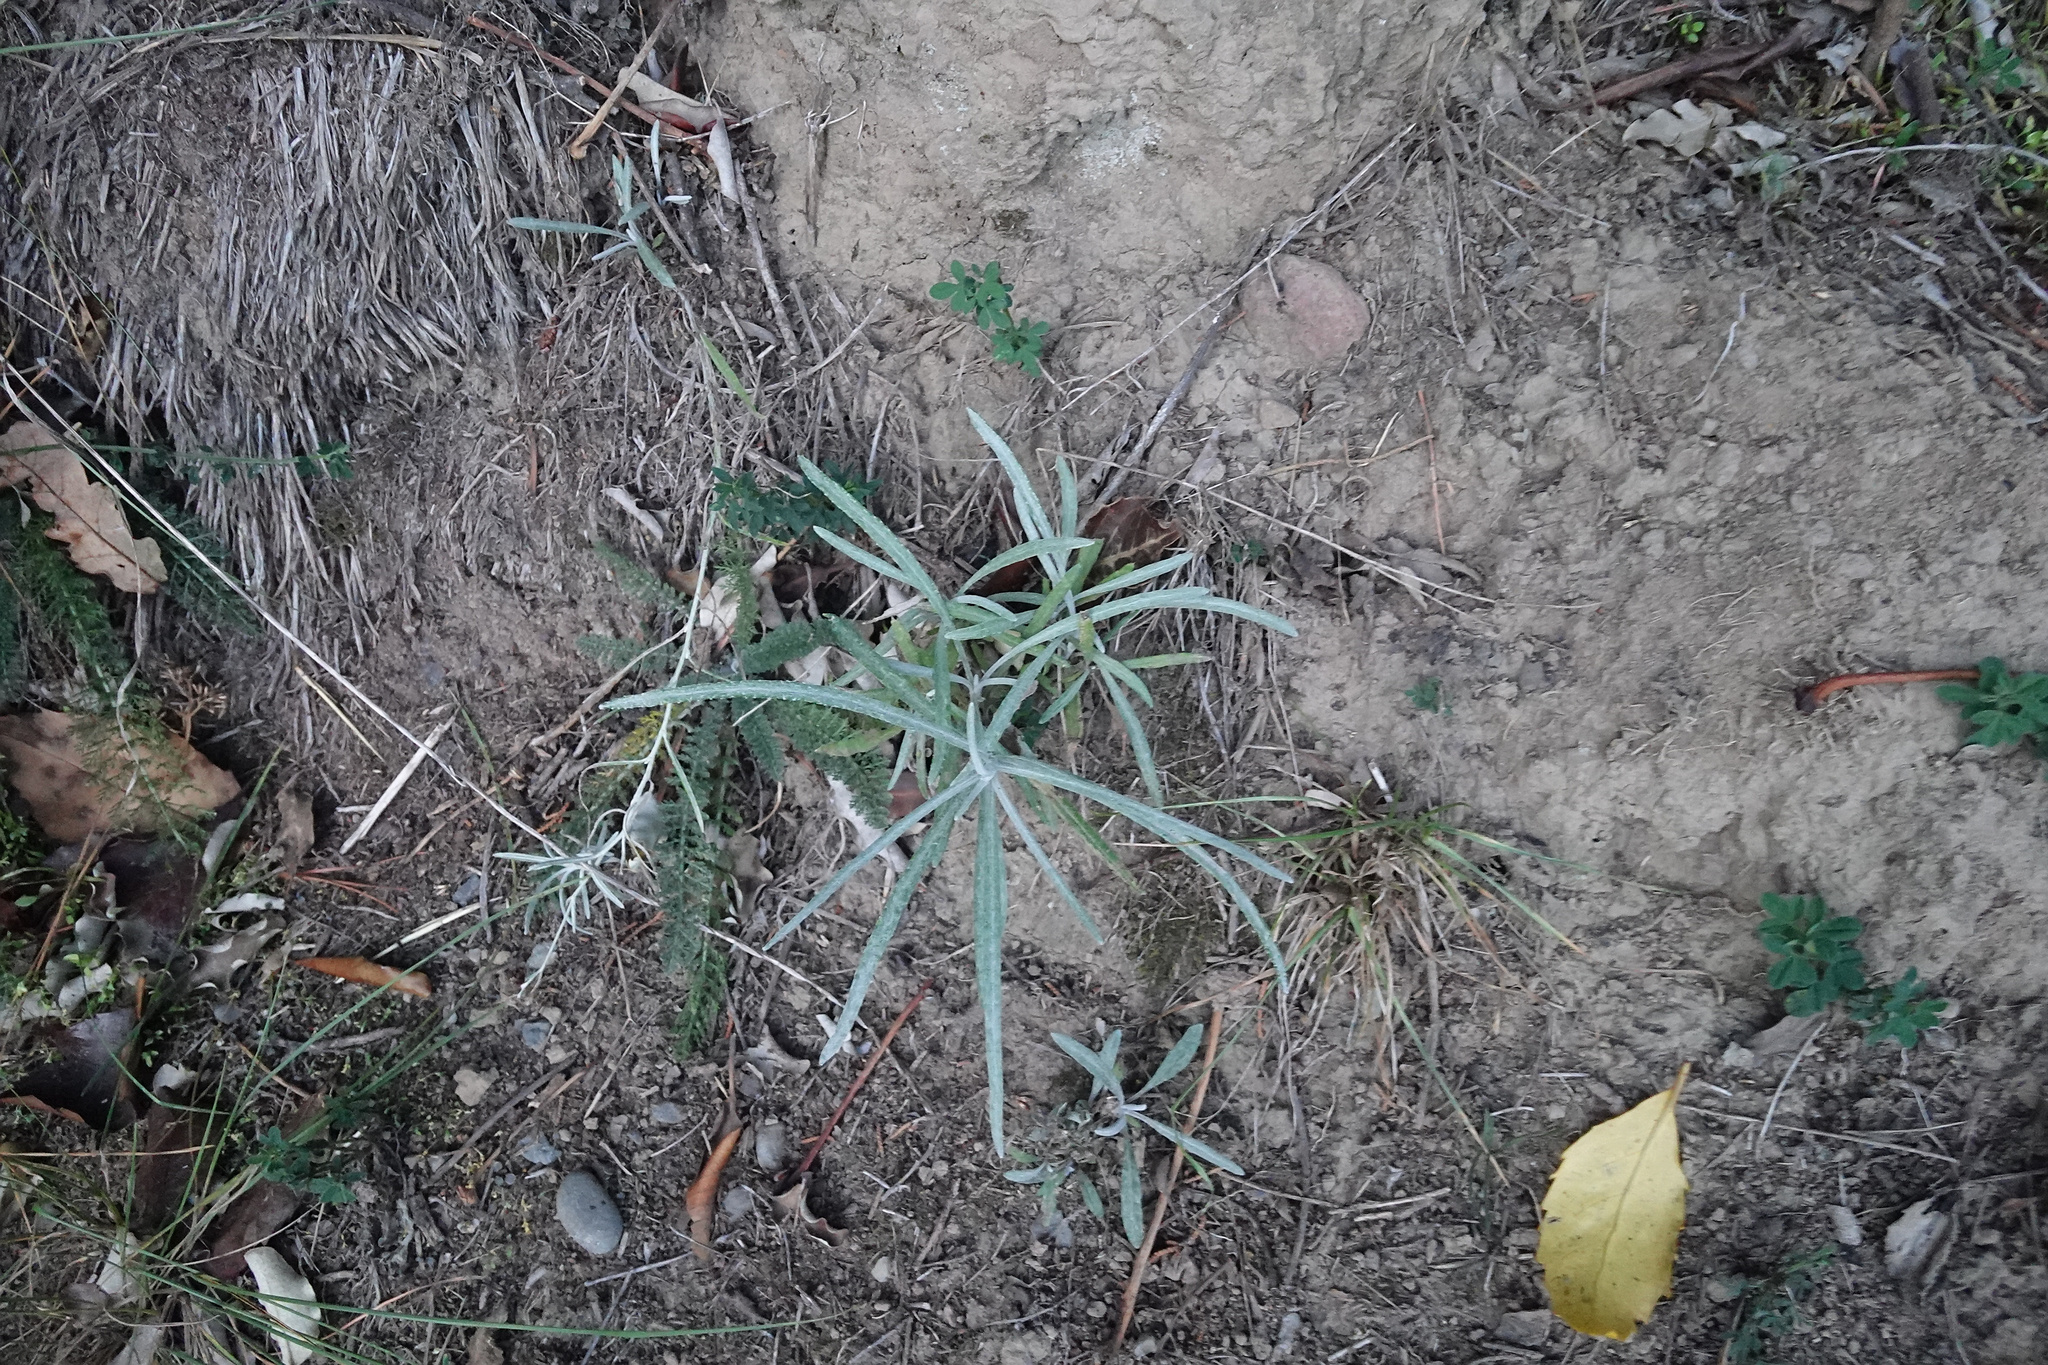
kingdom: Plantae
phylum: Tracheophyta
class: Magnoliopsida
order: Asterales
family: Asteraceae
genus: Senecio
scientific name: Senecio quadridentatus
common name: Cotton fireweed
